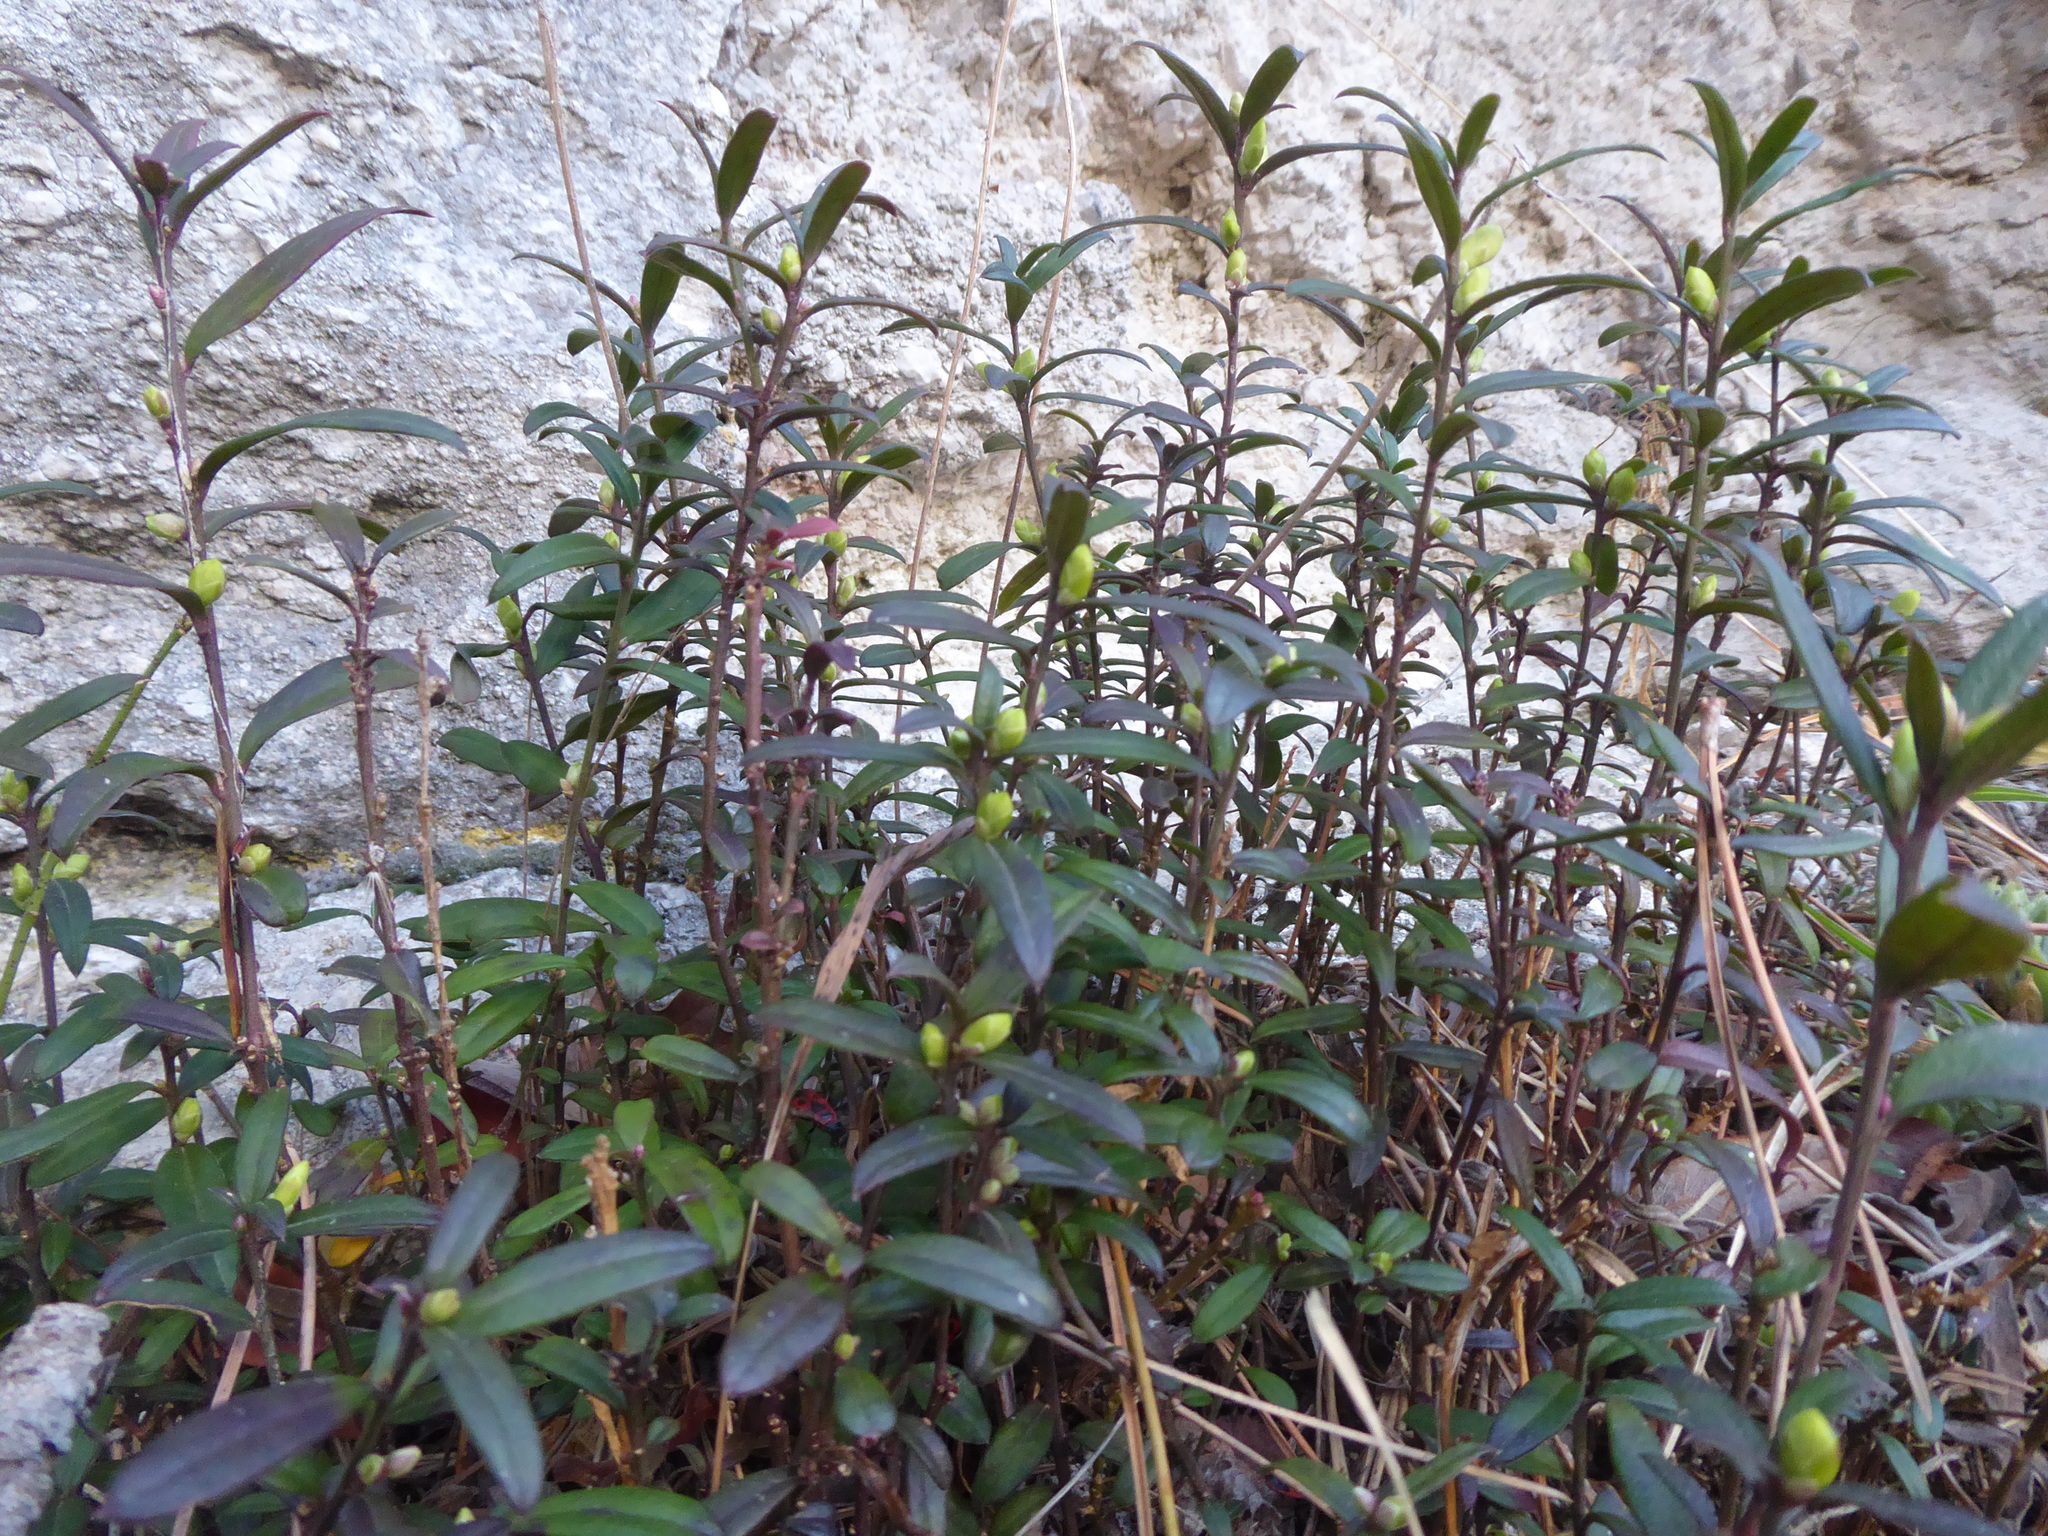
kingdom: Plantae
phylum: Tracheophyta
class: Magnoliopsida
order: Fabales
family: Polygalaceae
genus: Polygaloides
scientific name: Polygaloides chamaebuxus
